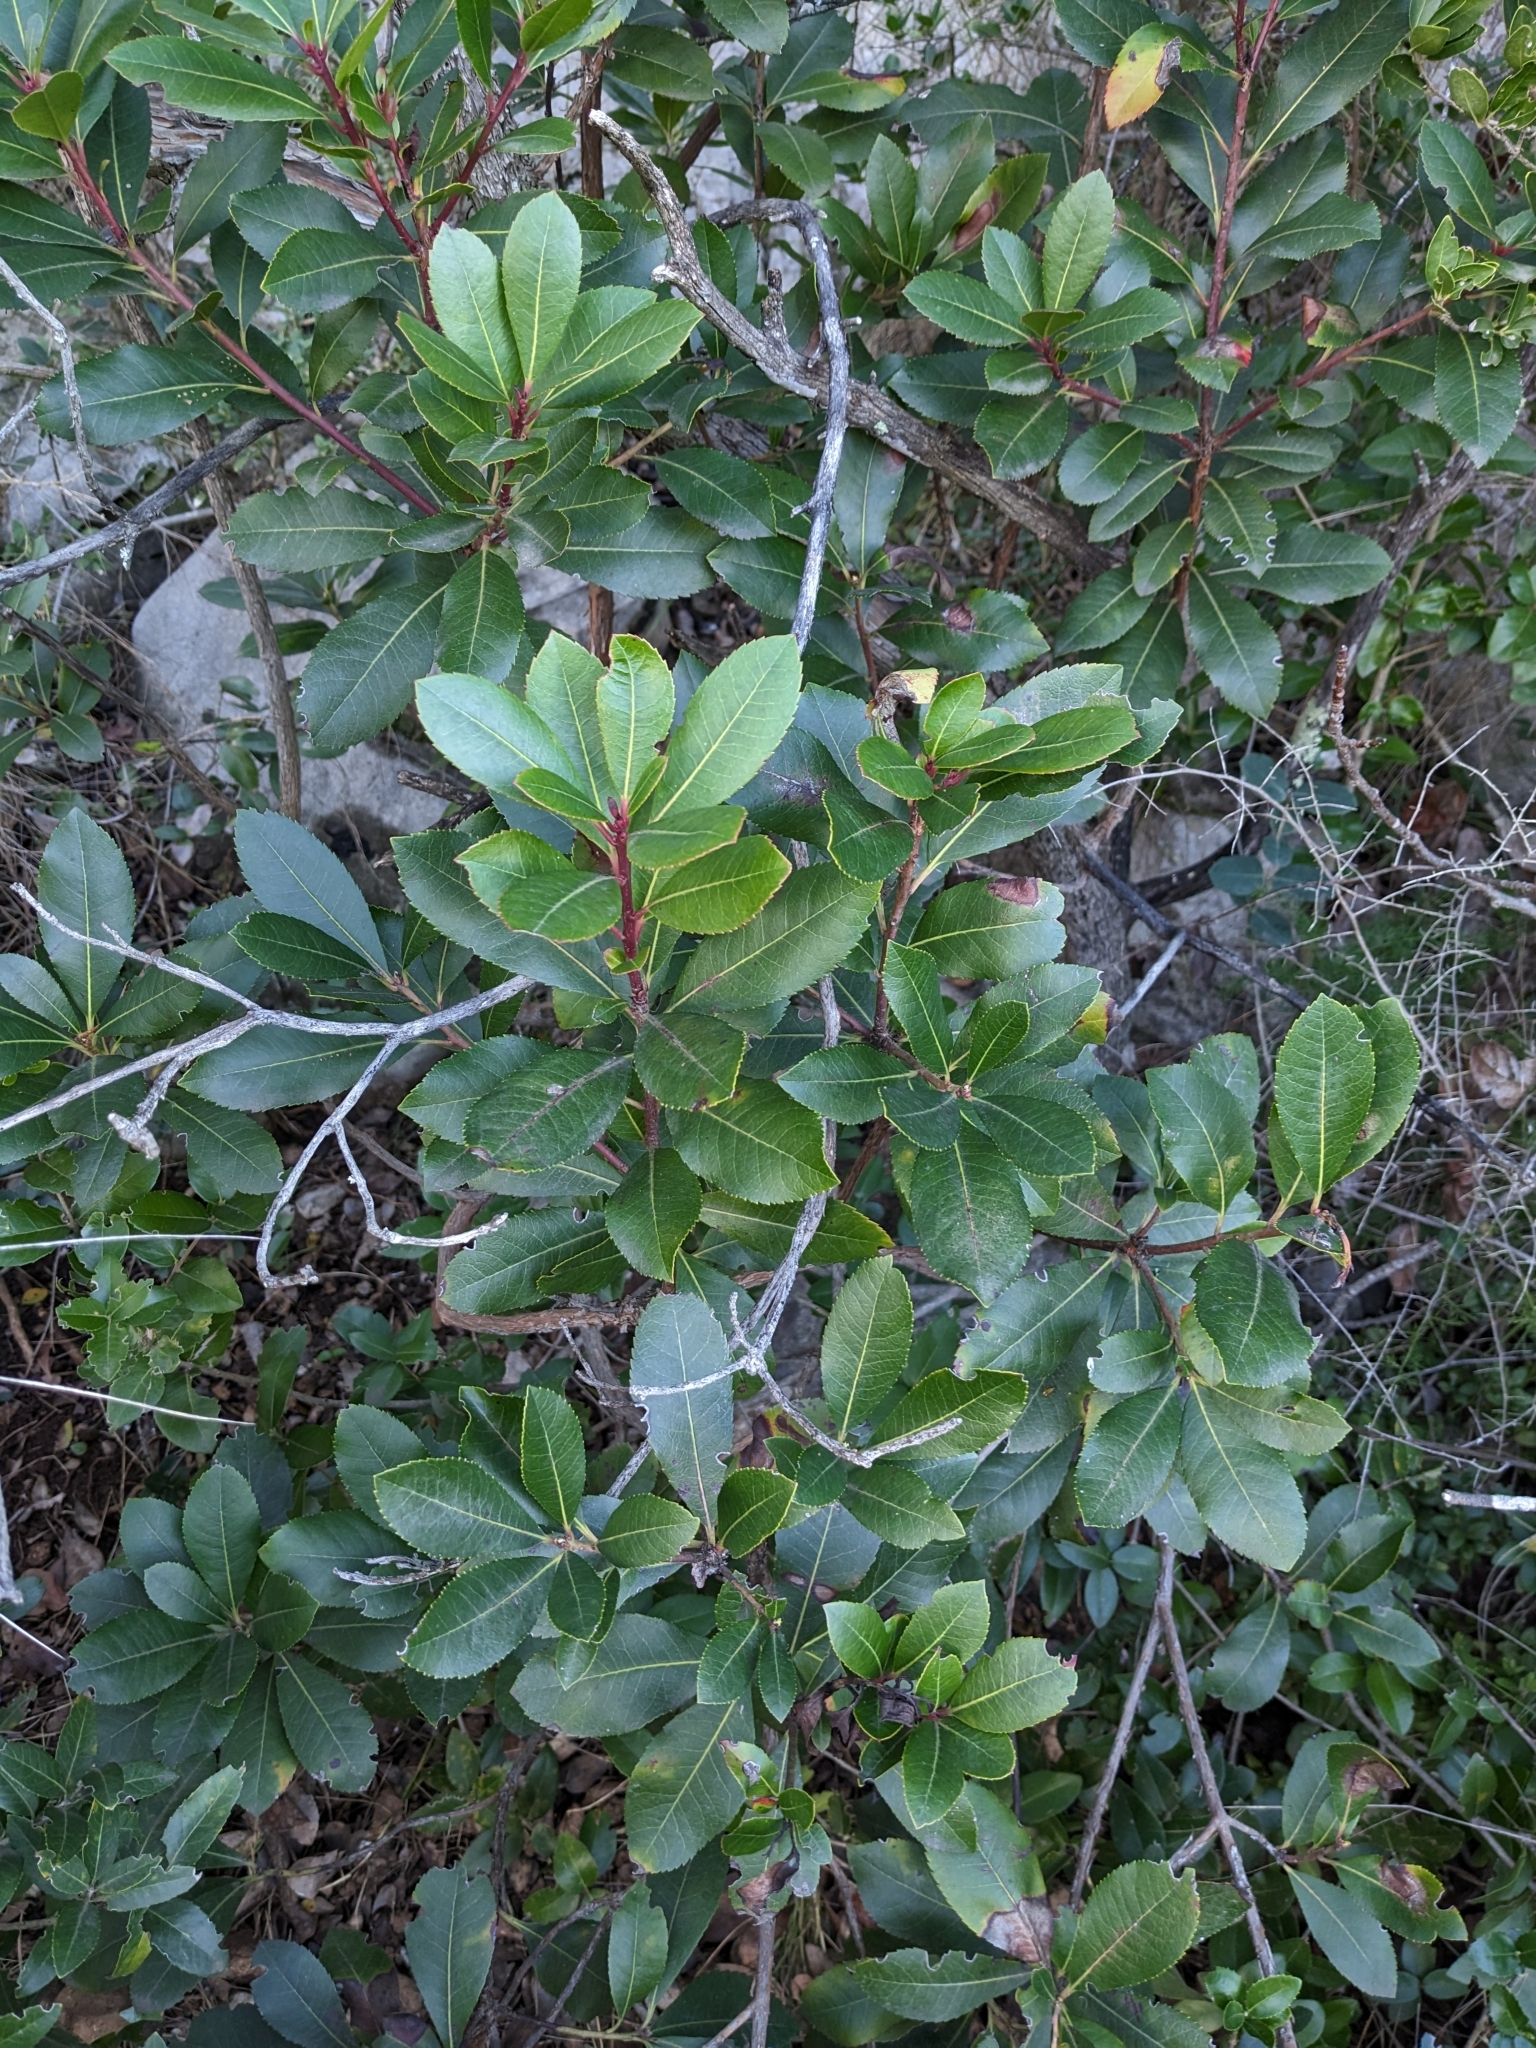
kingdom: Plantae
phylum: Tracheophyta
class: Magnoliopsida
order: Ericales
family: Ericaceae
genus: Arbutus
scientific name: Arbutus unedo
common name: Strawberry-tree
